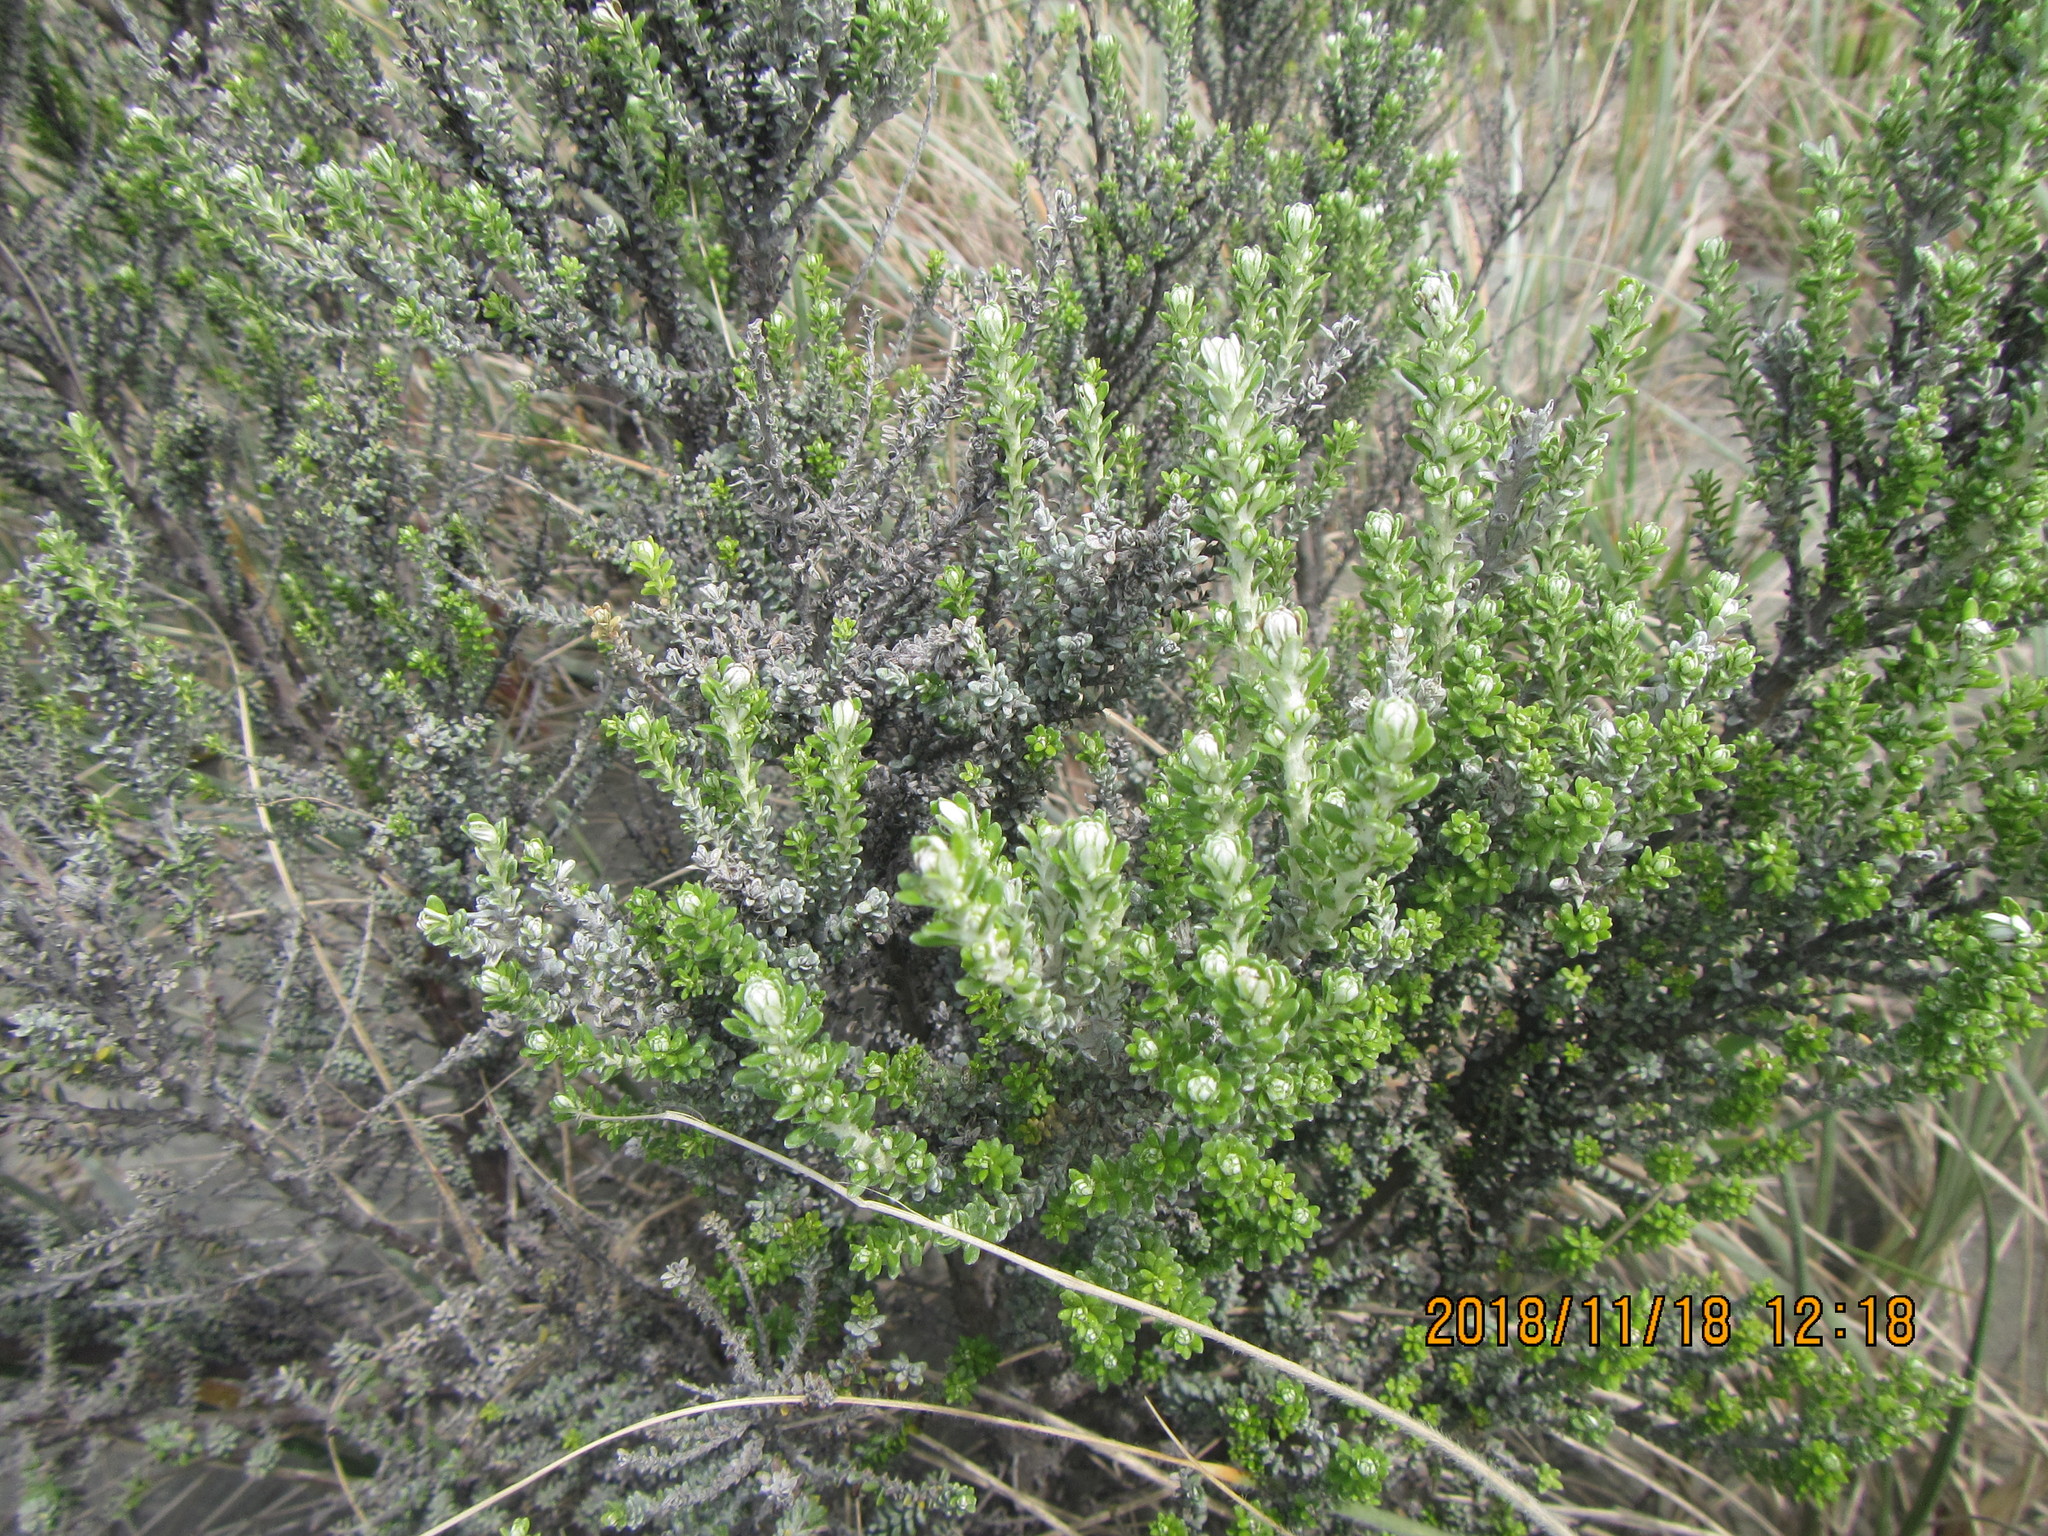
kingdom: Plantae
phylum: Tracheophyta
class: Magnoliopsida
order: Asterales
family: Asteraceae
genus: Ozothamnus
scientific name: Ozothamnus leptophyllus
